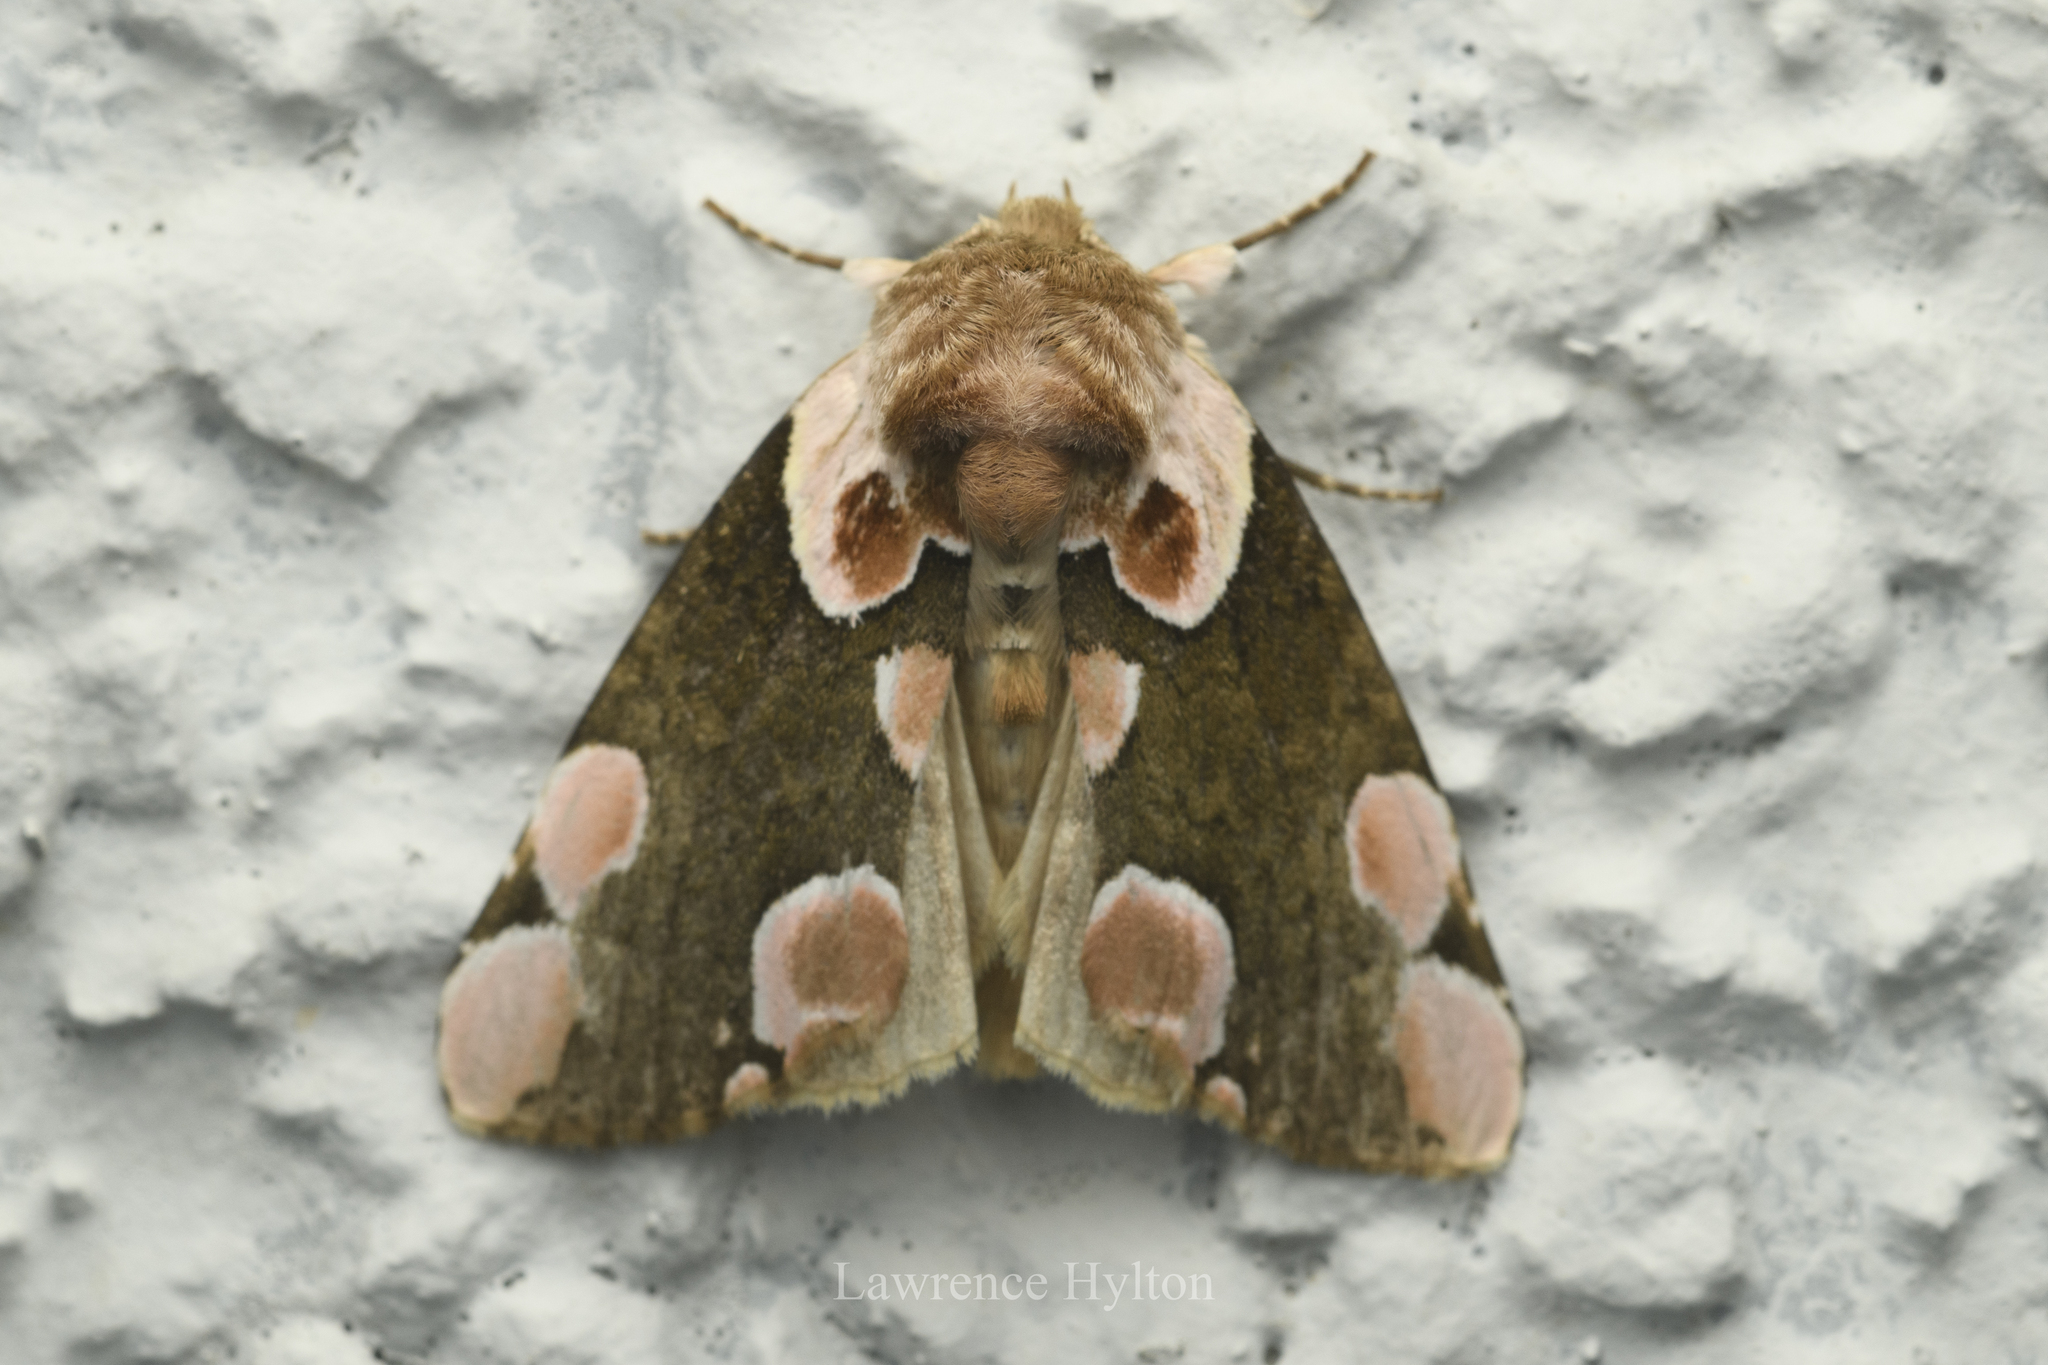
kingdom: Animalia
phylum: Arthropoda
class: Insecta
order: Lepidoptera
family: Drepanidae
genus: Thyatira
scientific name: Thyatira batis
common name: Peach blossom
